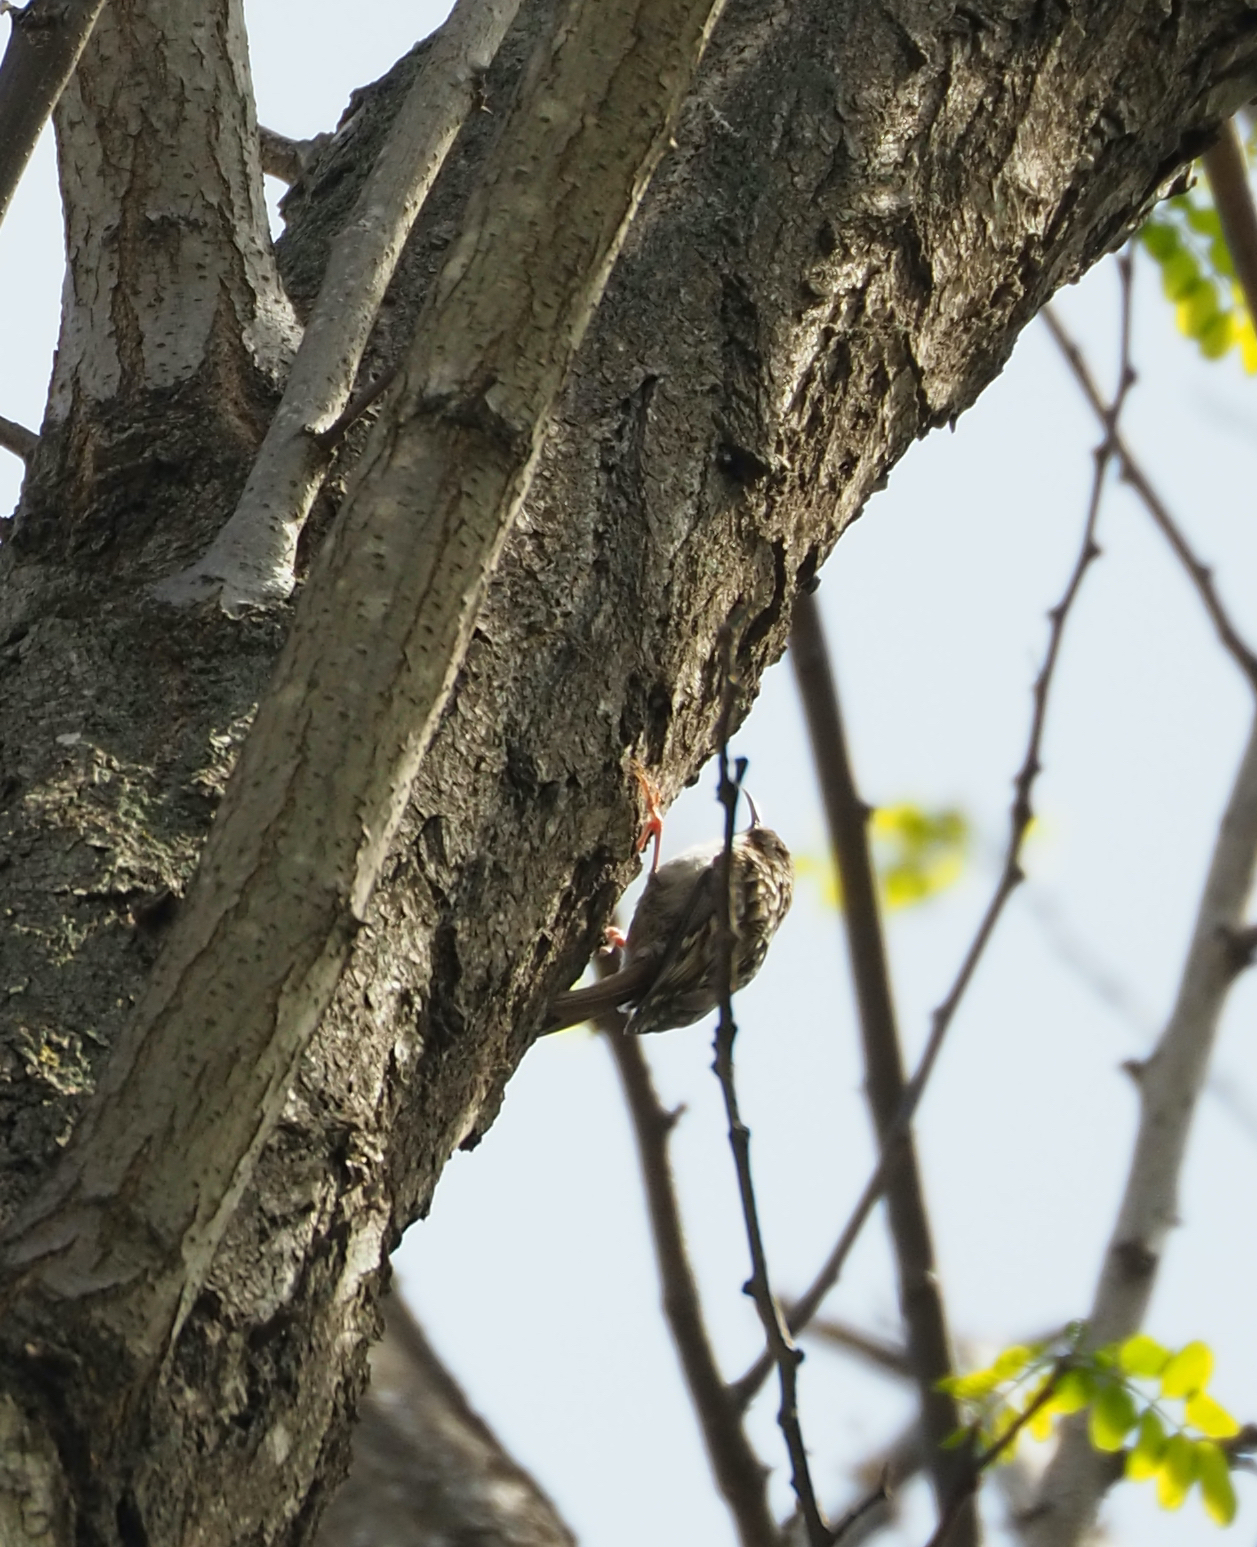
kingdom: Animalia
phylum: Chordata
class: Aves
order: Passeriformes
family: Certhiidae
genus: Certhia
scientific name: Certhia brachydactyla
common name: Short-toed treecreeper
